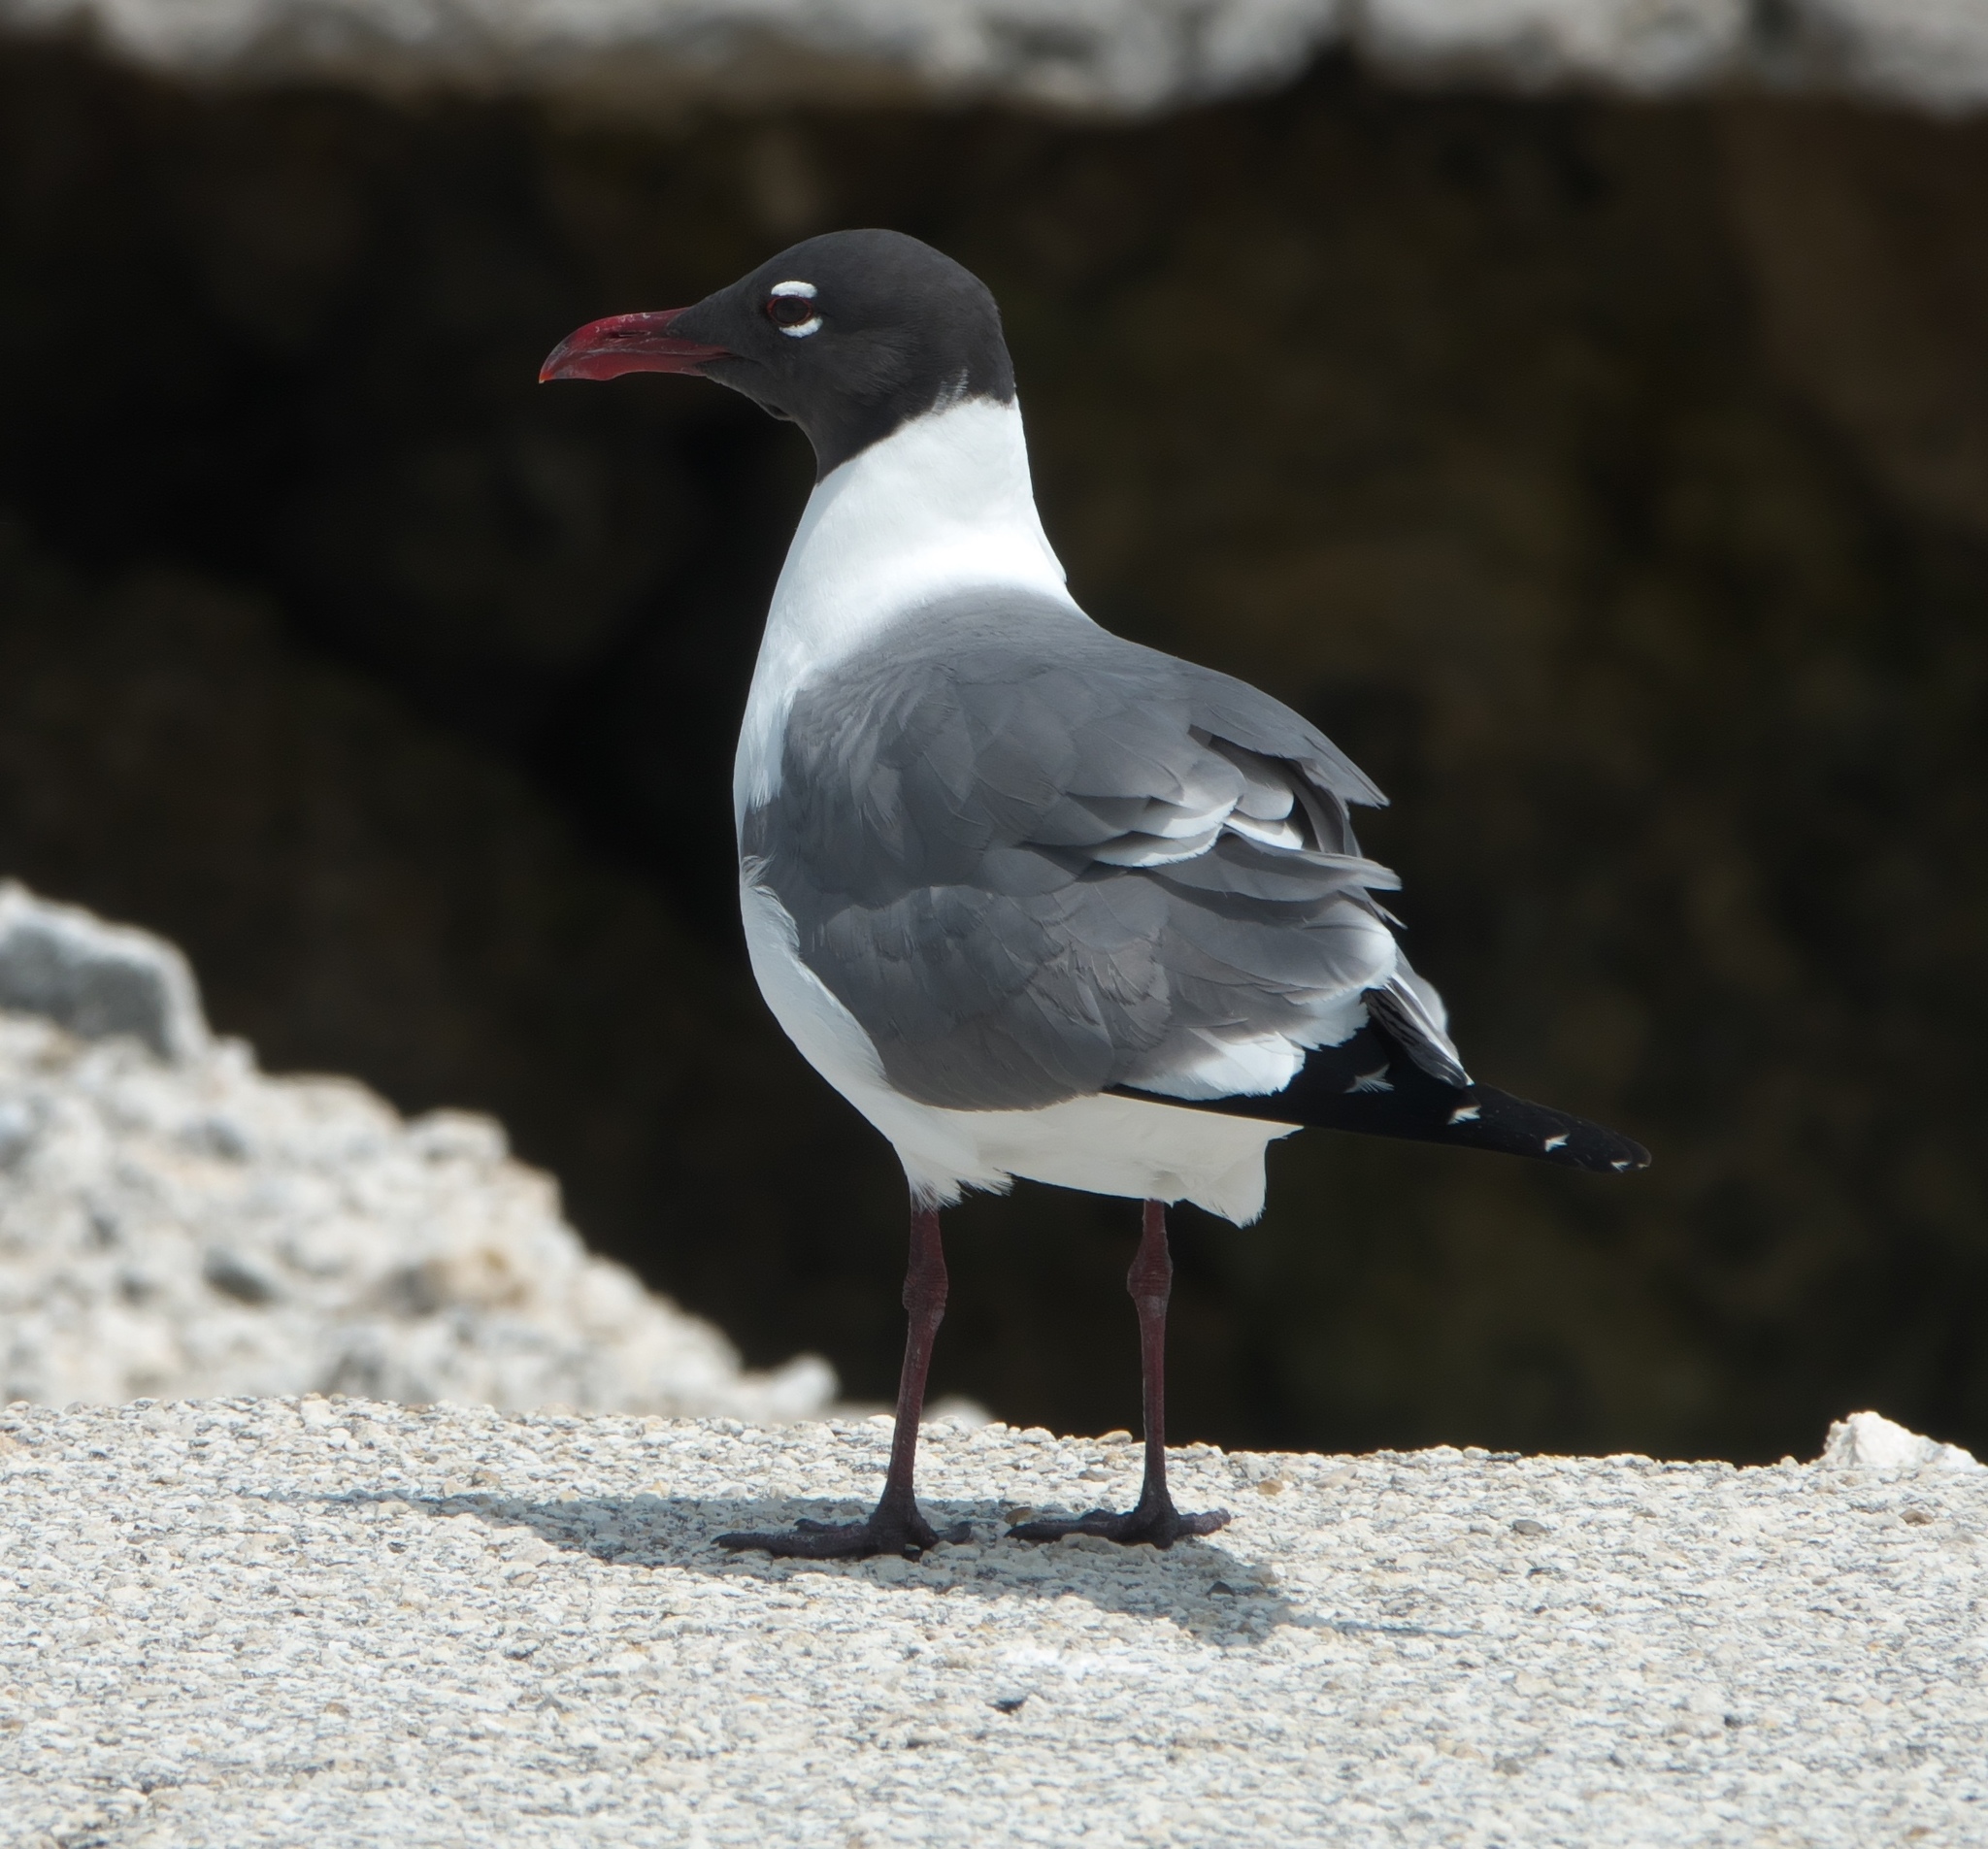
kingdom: Animalia
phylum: Chordata
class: Aves
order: Charadriiformes
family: Laridae
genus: Leucophaeus
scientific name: Leucophaeus atricilla
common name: Laughing gull
